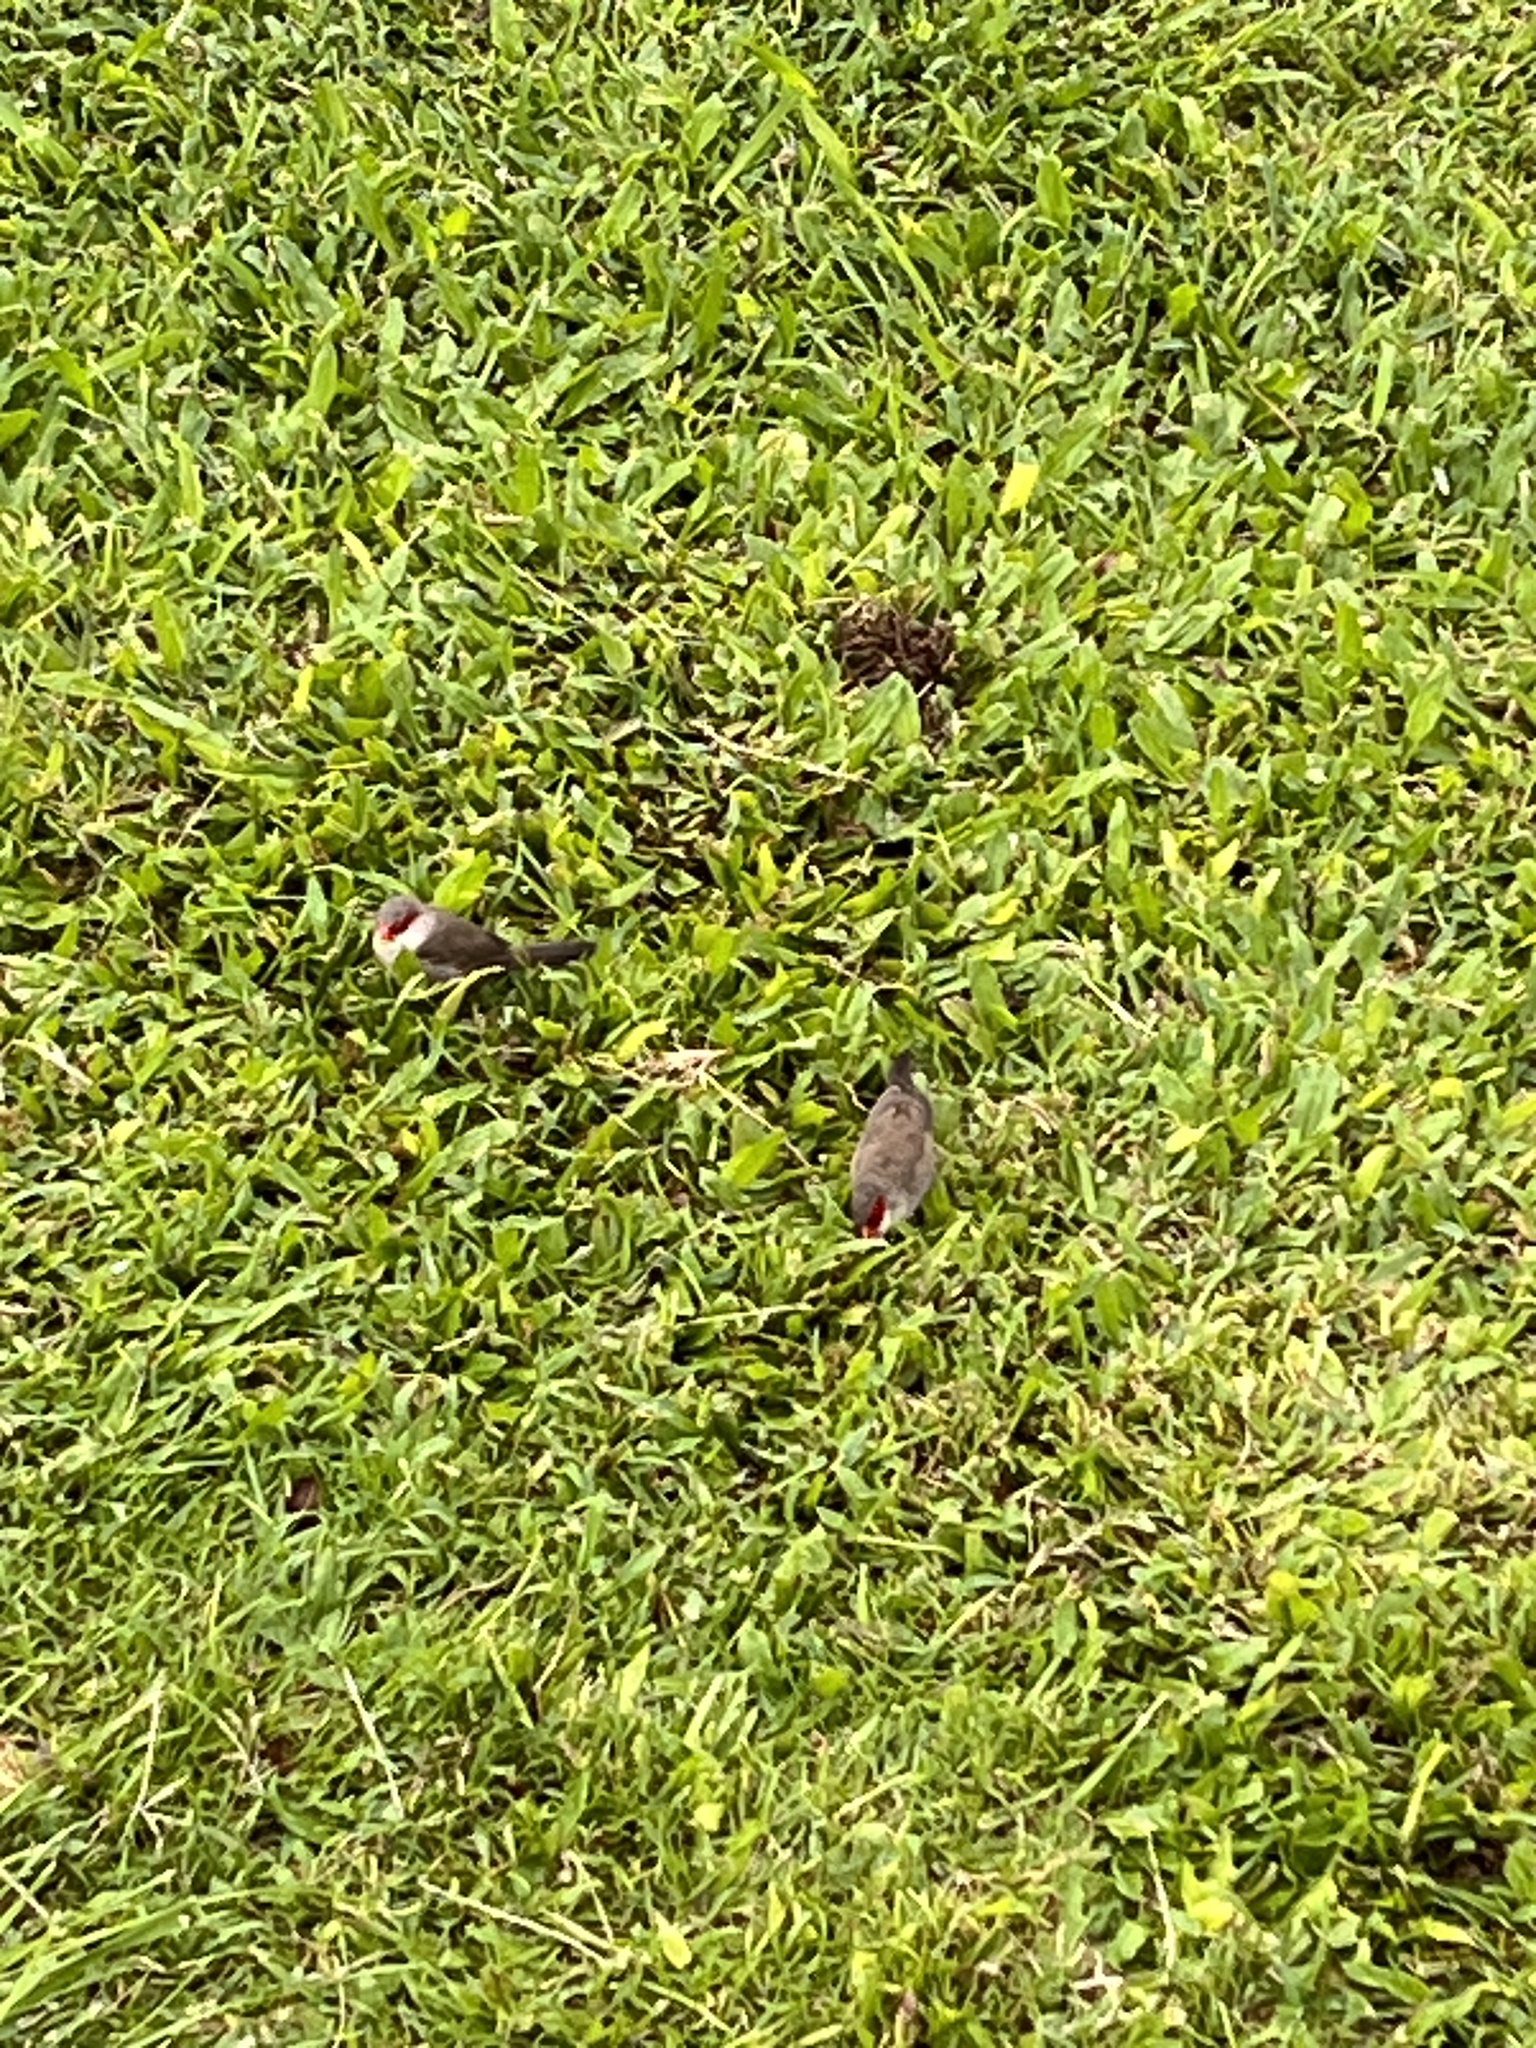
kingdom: Animalia
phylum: Chordata
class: Aves
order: Passeriformes
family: Estrildidae
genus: Estrilda
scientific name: Estrilda astrild
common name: Common waxbill
